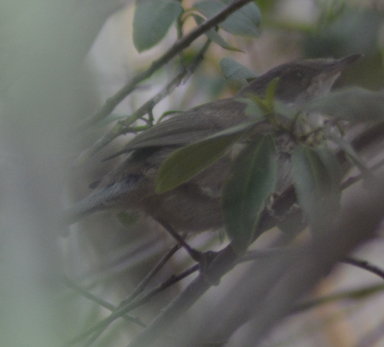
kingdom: Animalia
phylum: Chordata
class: Aves
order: Passeriformes
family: Sylviidae
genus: Curruca
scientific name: Curruca melanocephala
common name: Sardinian warbler
